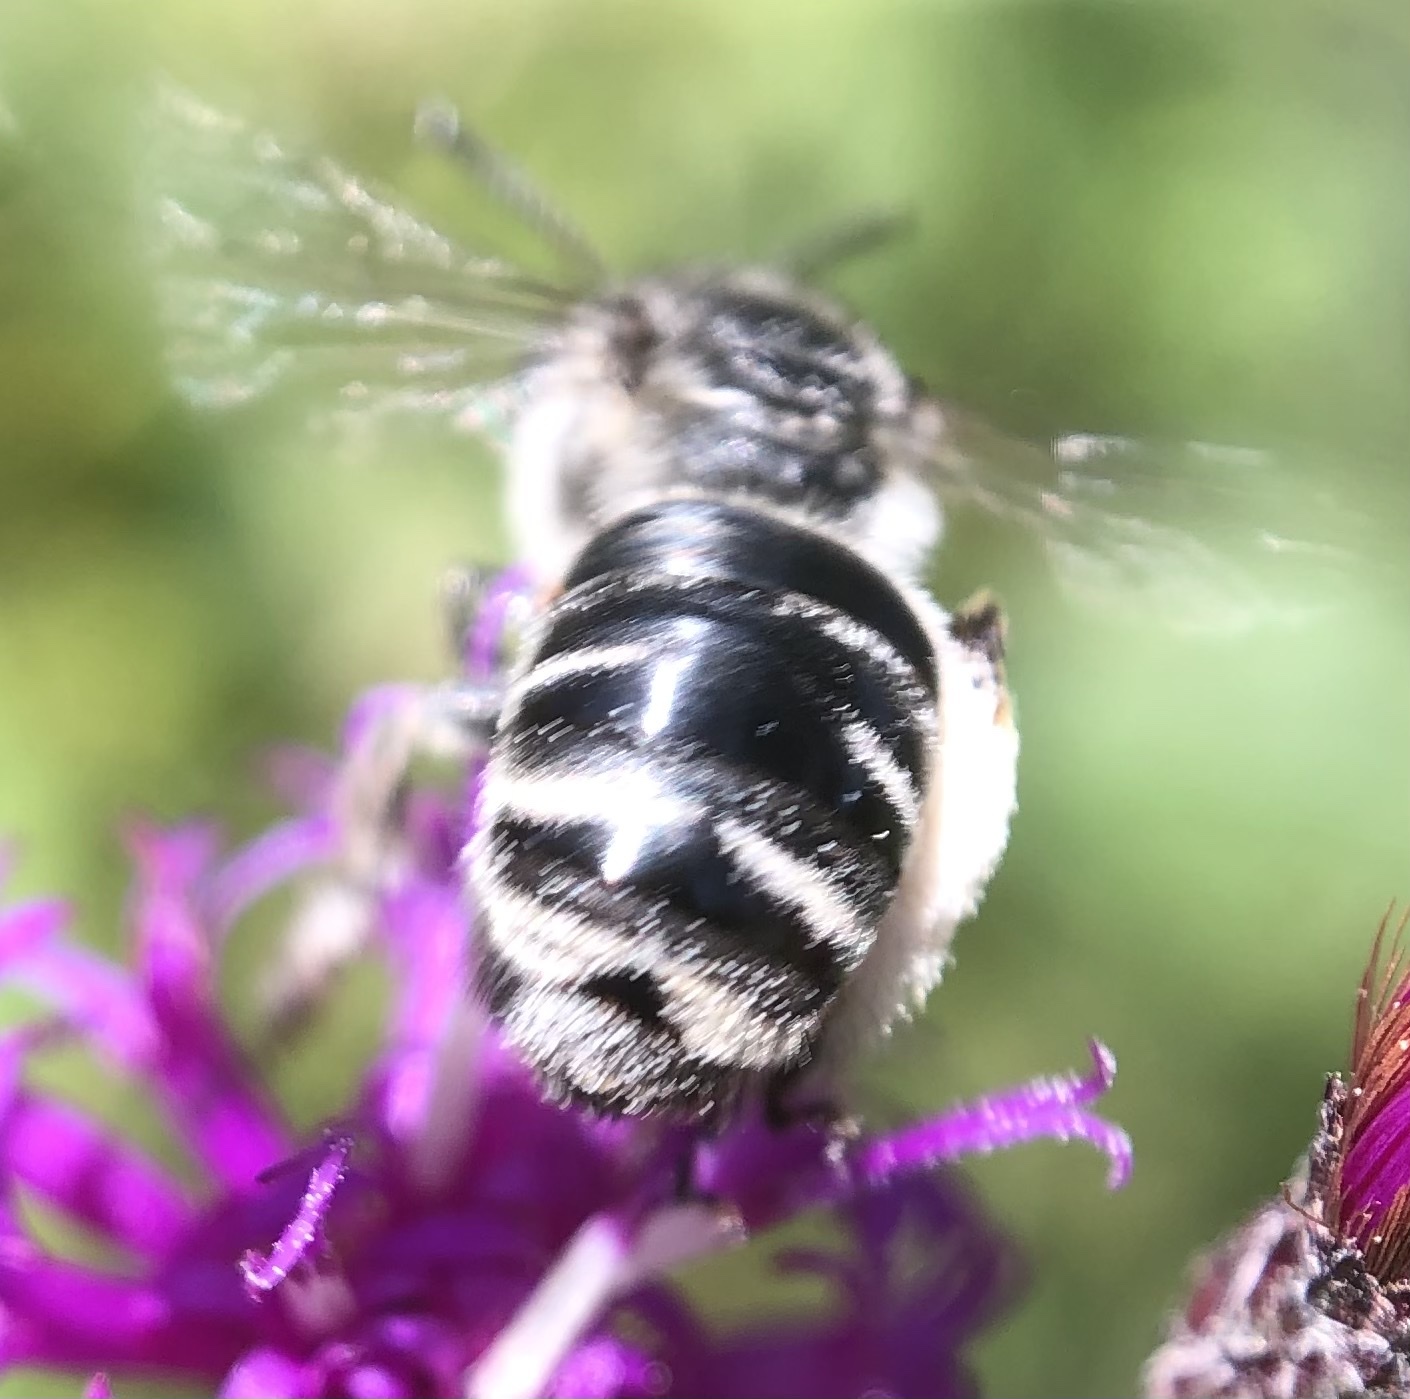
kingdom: Animalia
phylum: Arthropoda
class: Insecta
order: Hymenoptera
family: Apidae
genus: Melissodes
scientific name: Melissodes denticulatus
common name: Denticulate long-horned bee
